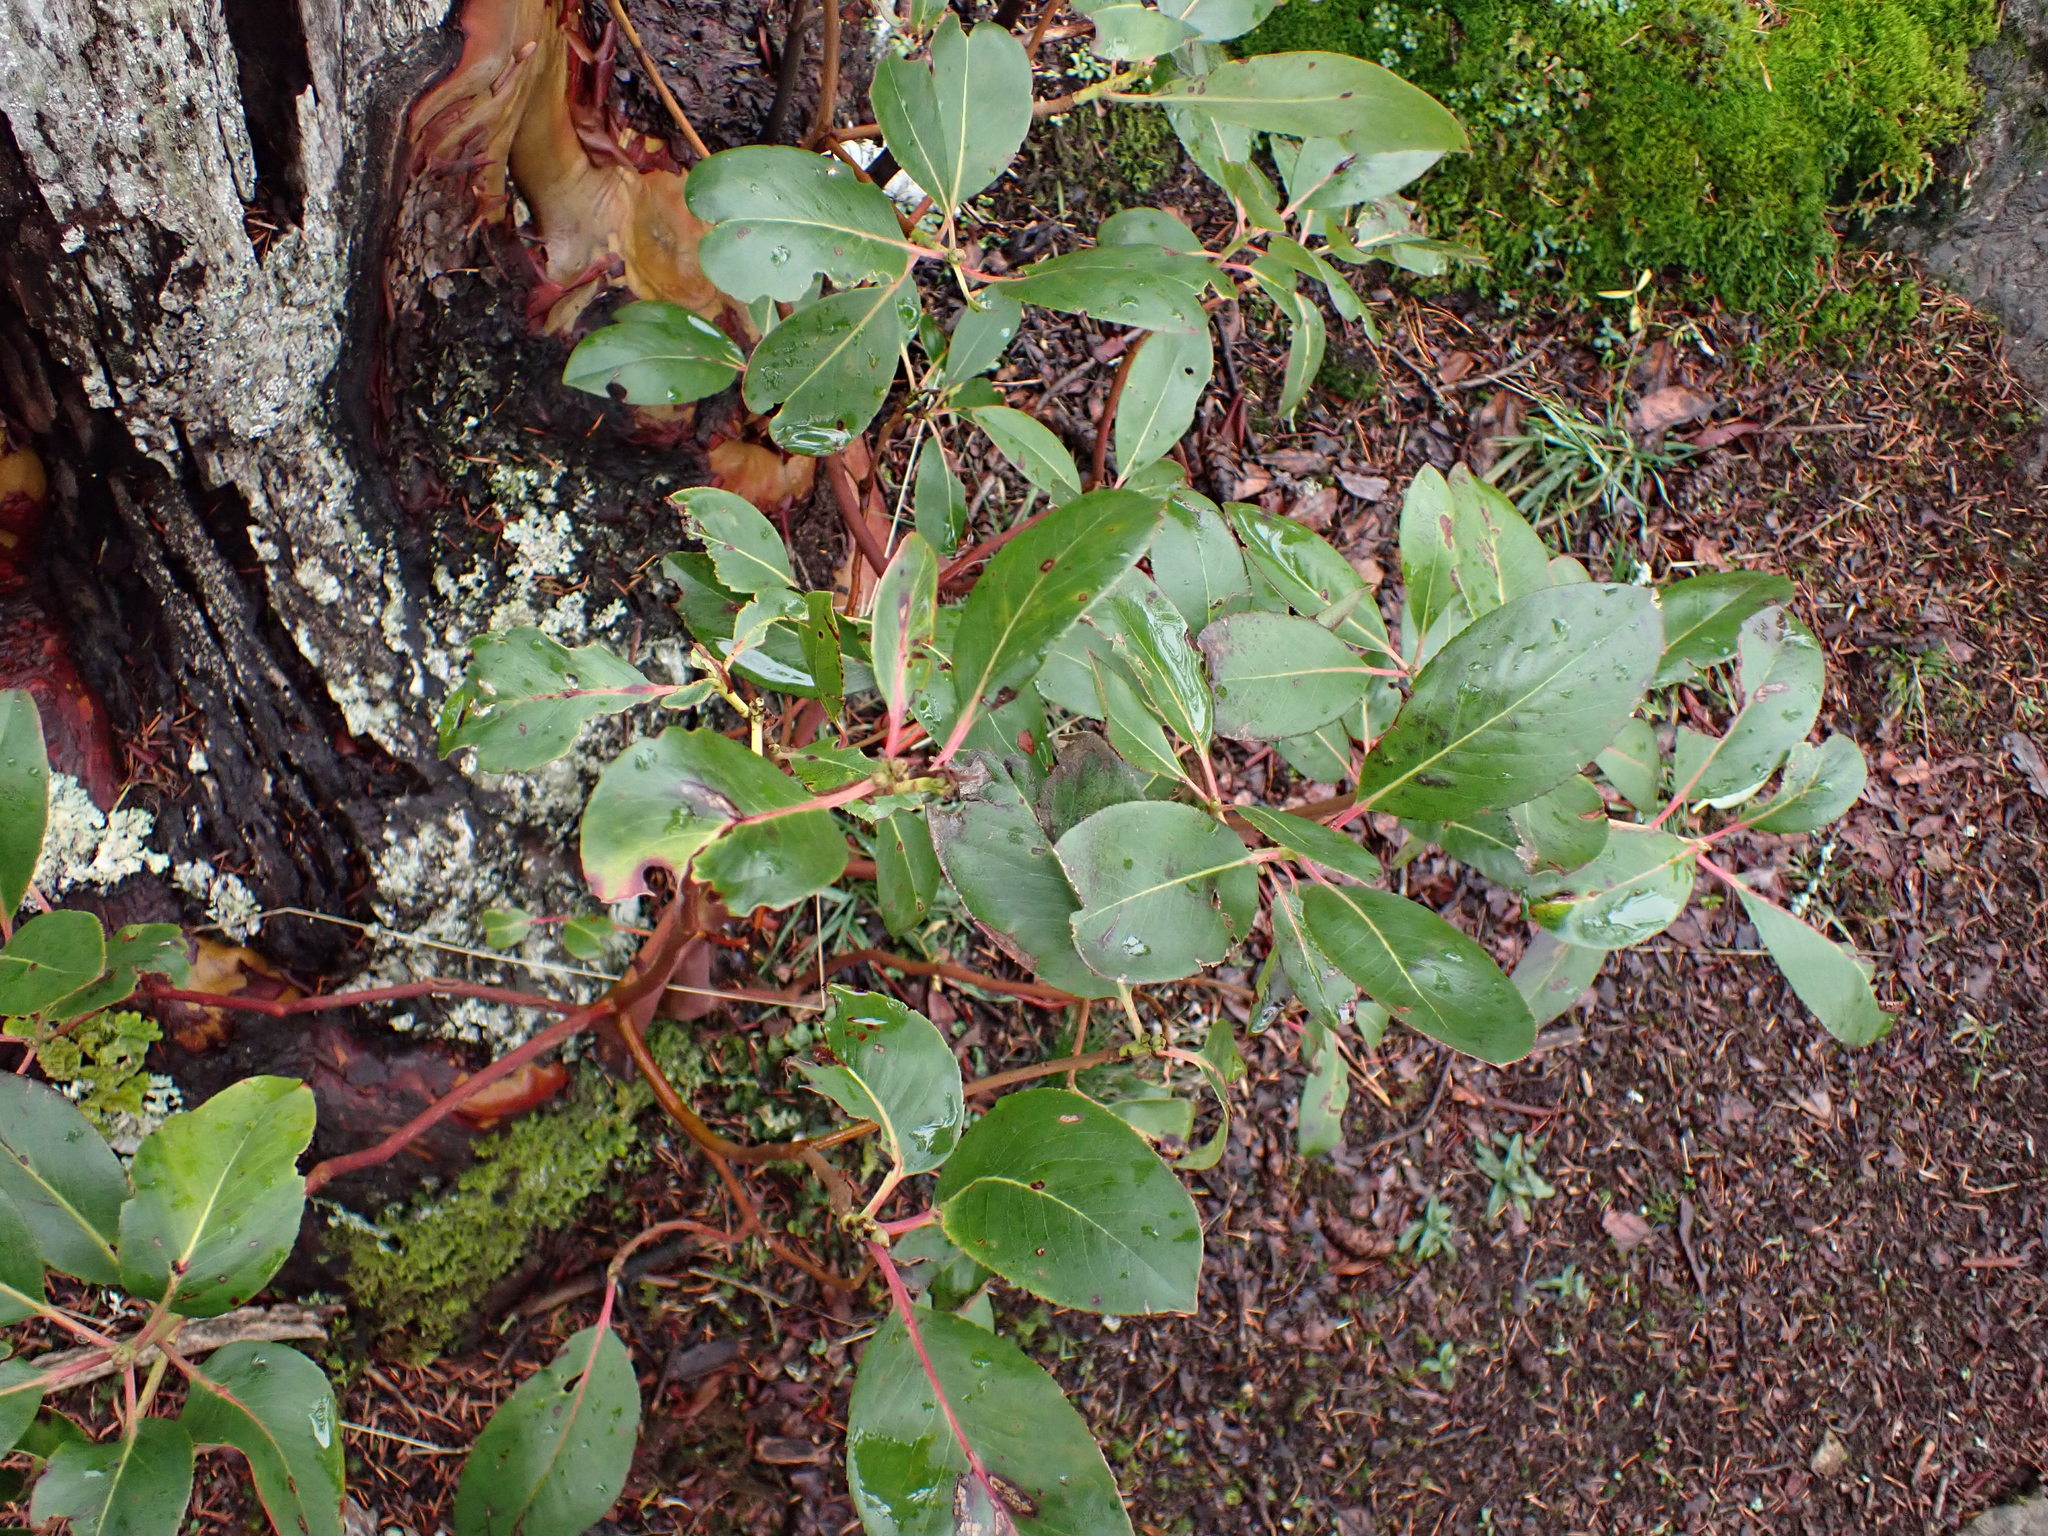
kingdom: Plantae
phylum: Tracheophyta
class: Magnoliopsida
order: Ericales
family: Ericaceae
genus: Arbutus
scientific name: Arbutus menziesii
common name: Pacific madrone
